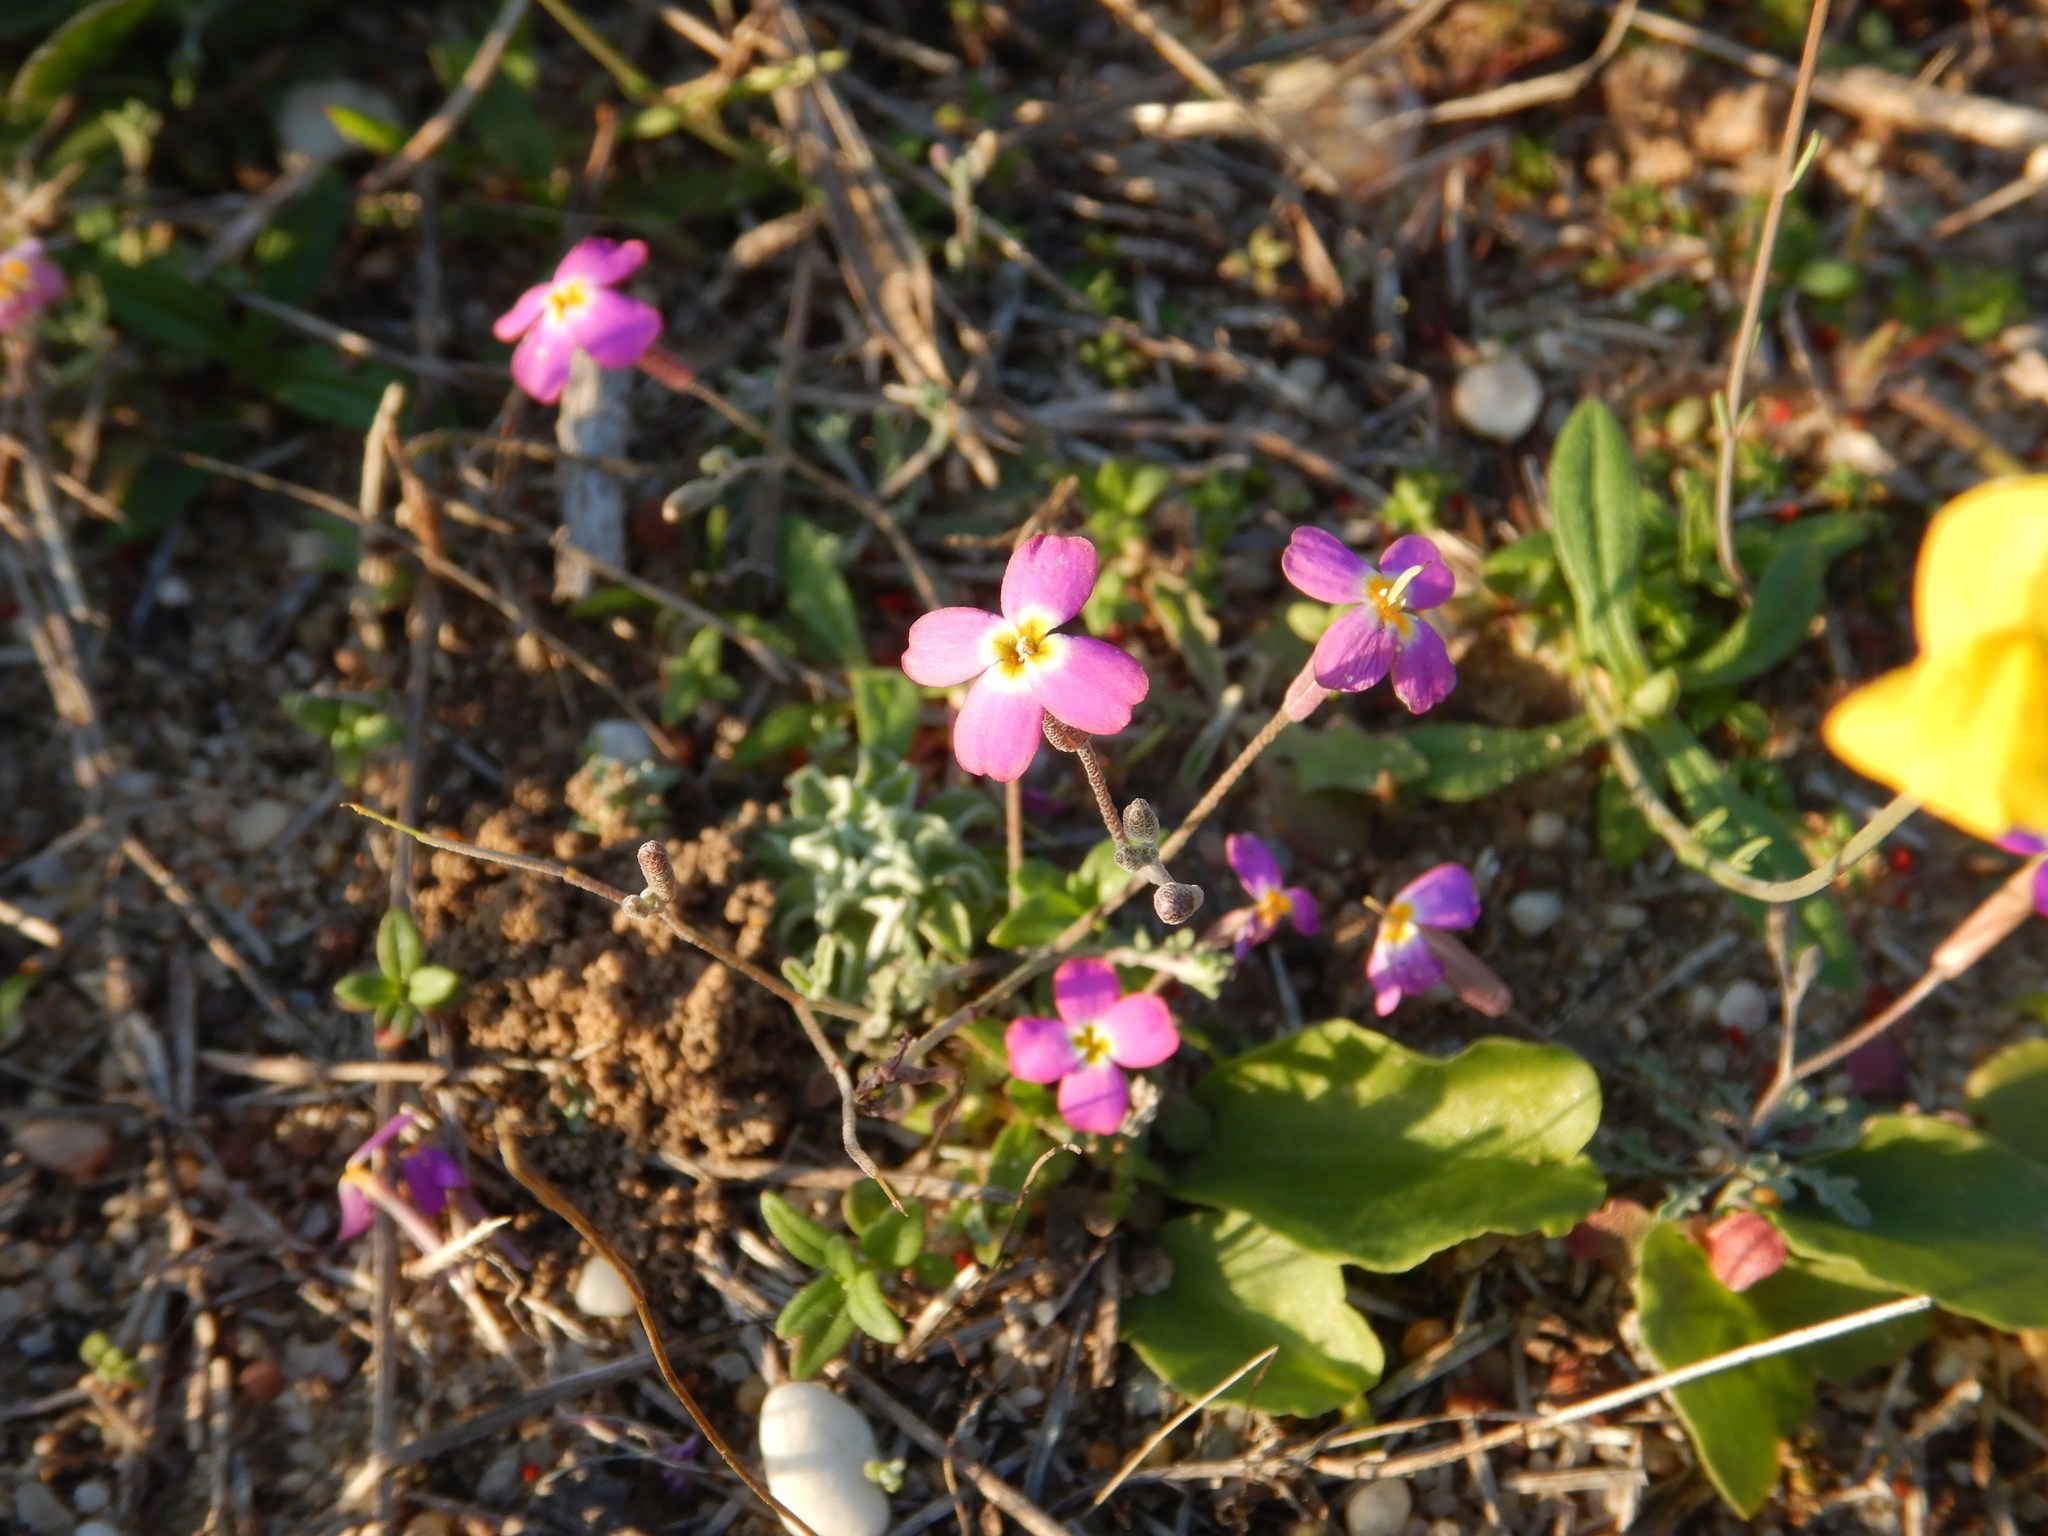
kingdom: Plantae
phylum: Tracheophyta
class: Magnoliopsida
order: Brassicales
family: Brassicaceae
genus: Marcuskochia
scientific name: Marcuskochia triloba
